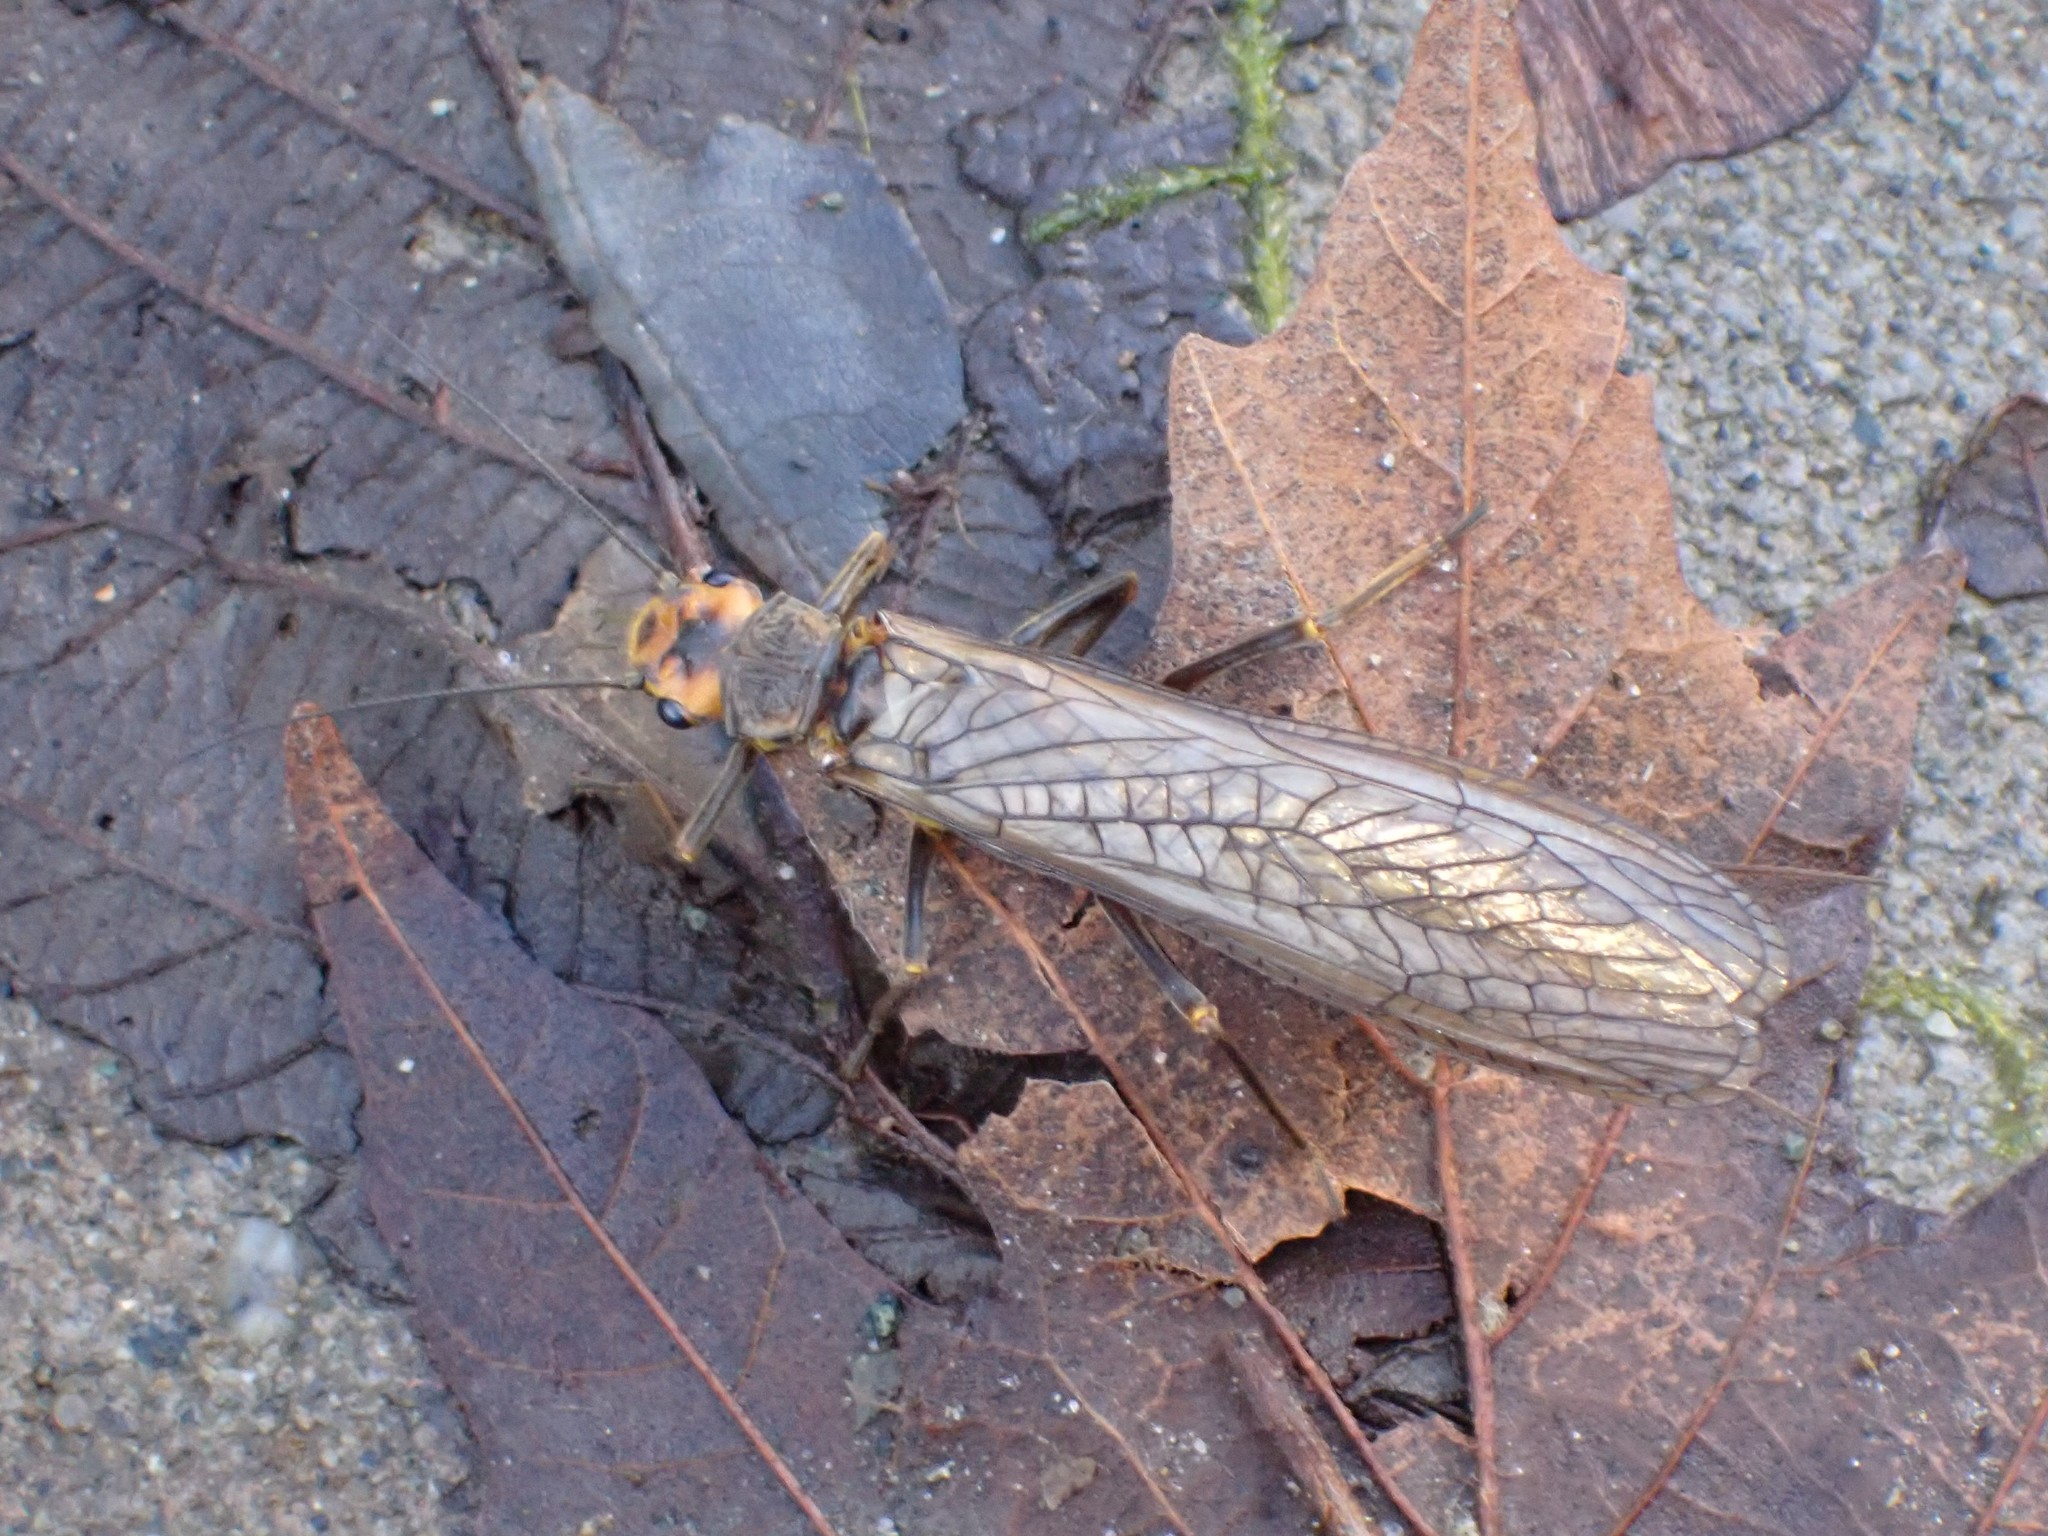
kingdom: Animalia
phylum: Arthropoda
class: Insecta
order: Plecoptera
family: Perlidae
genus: Hesperoperla
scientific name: Hesperoperla pacifica
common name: Golden stone
